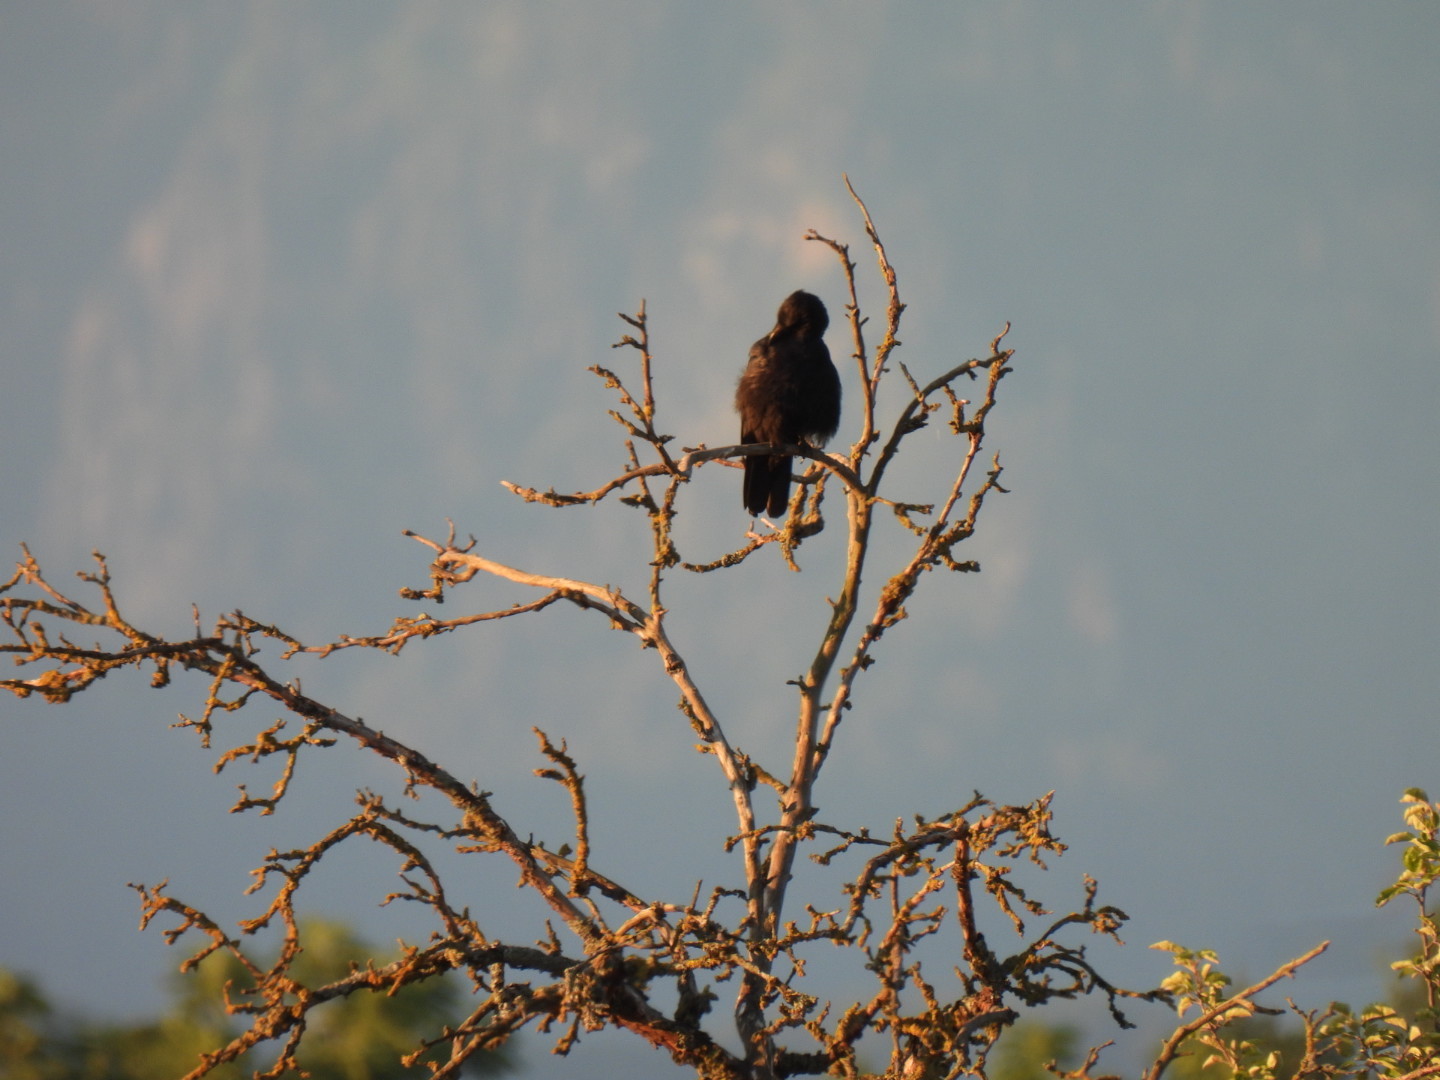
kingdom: Animalia
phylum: Chordata
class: Aves
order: Passeriformes
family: Corvidae
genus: Corvus
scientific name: Corvus corone
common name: Carrion crow
